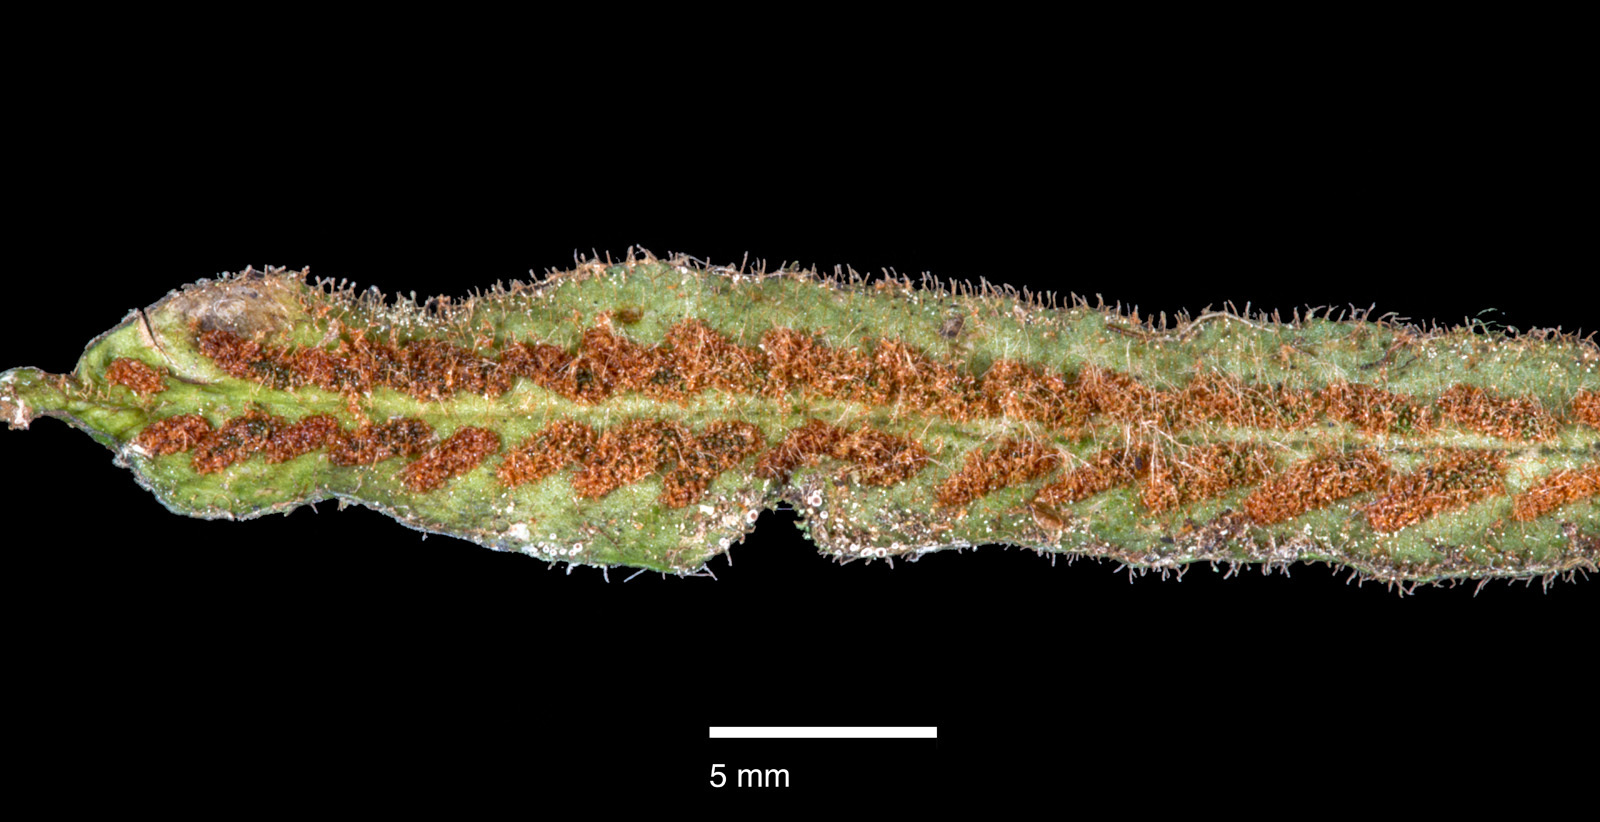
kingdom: Plantae
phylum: Tracheophyta
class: Polypodiopsida
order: Polypodiales
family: Polypodiaceae
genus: Notogrammitis
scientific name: Notogrammitis pseudociliata
